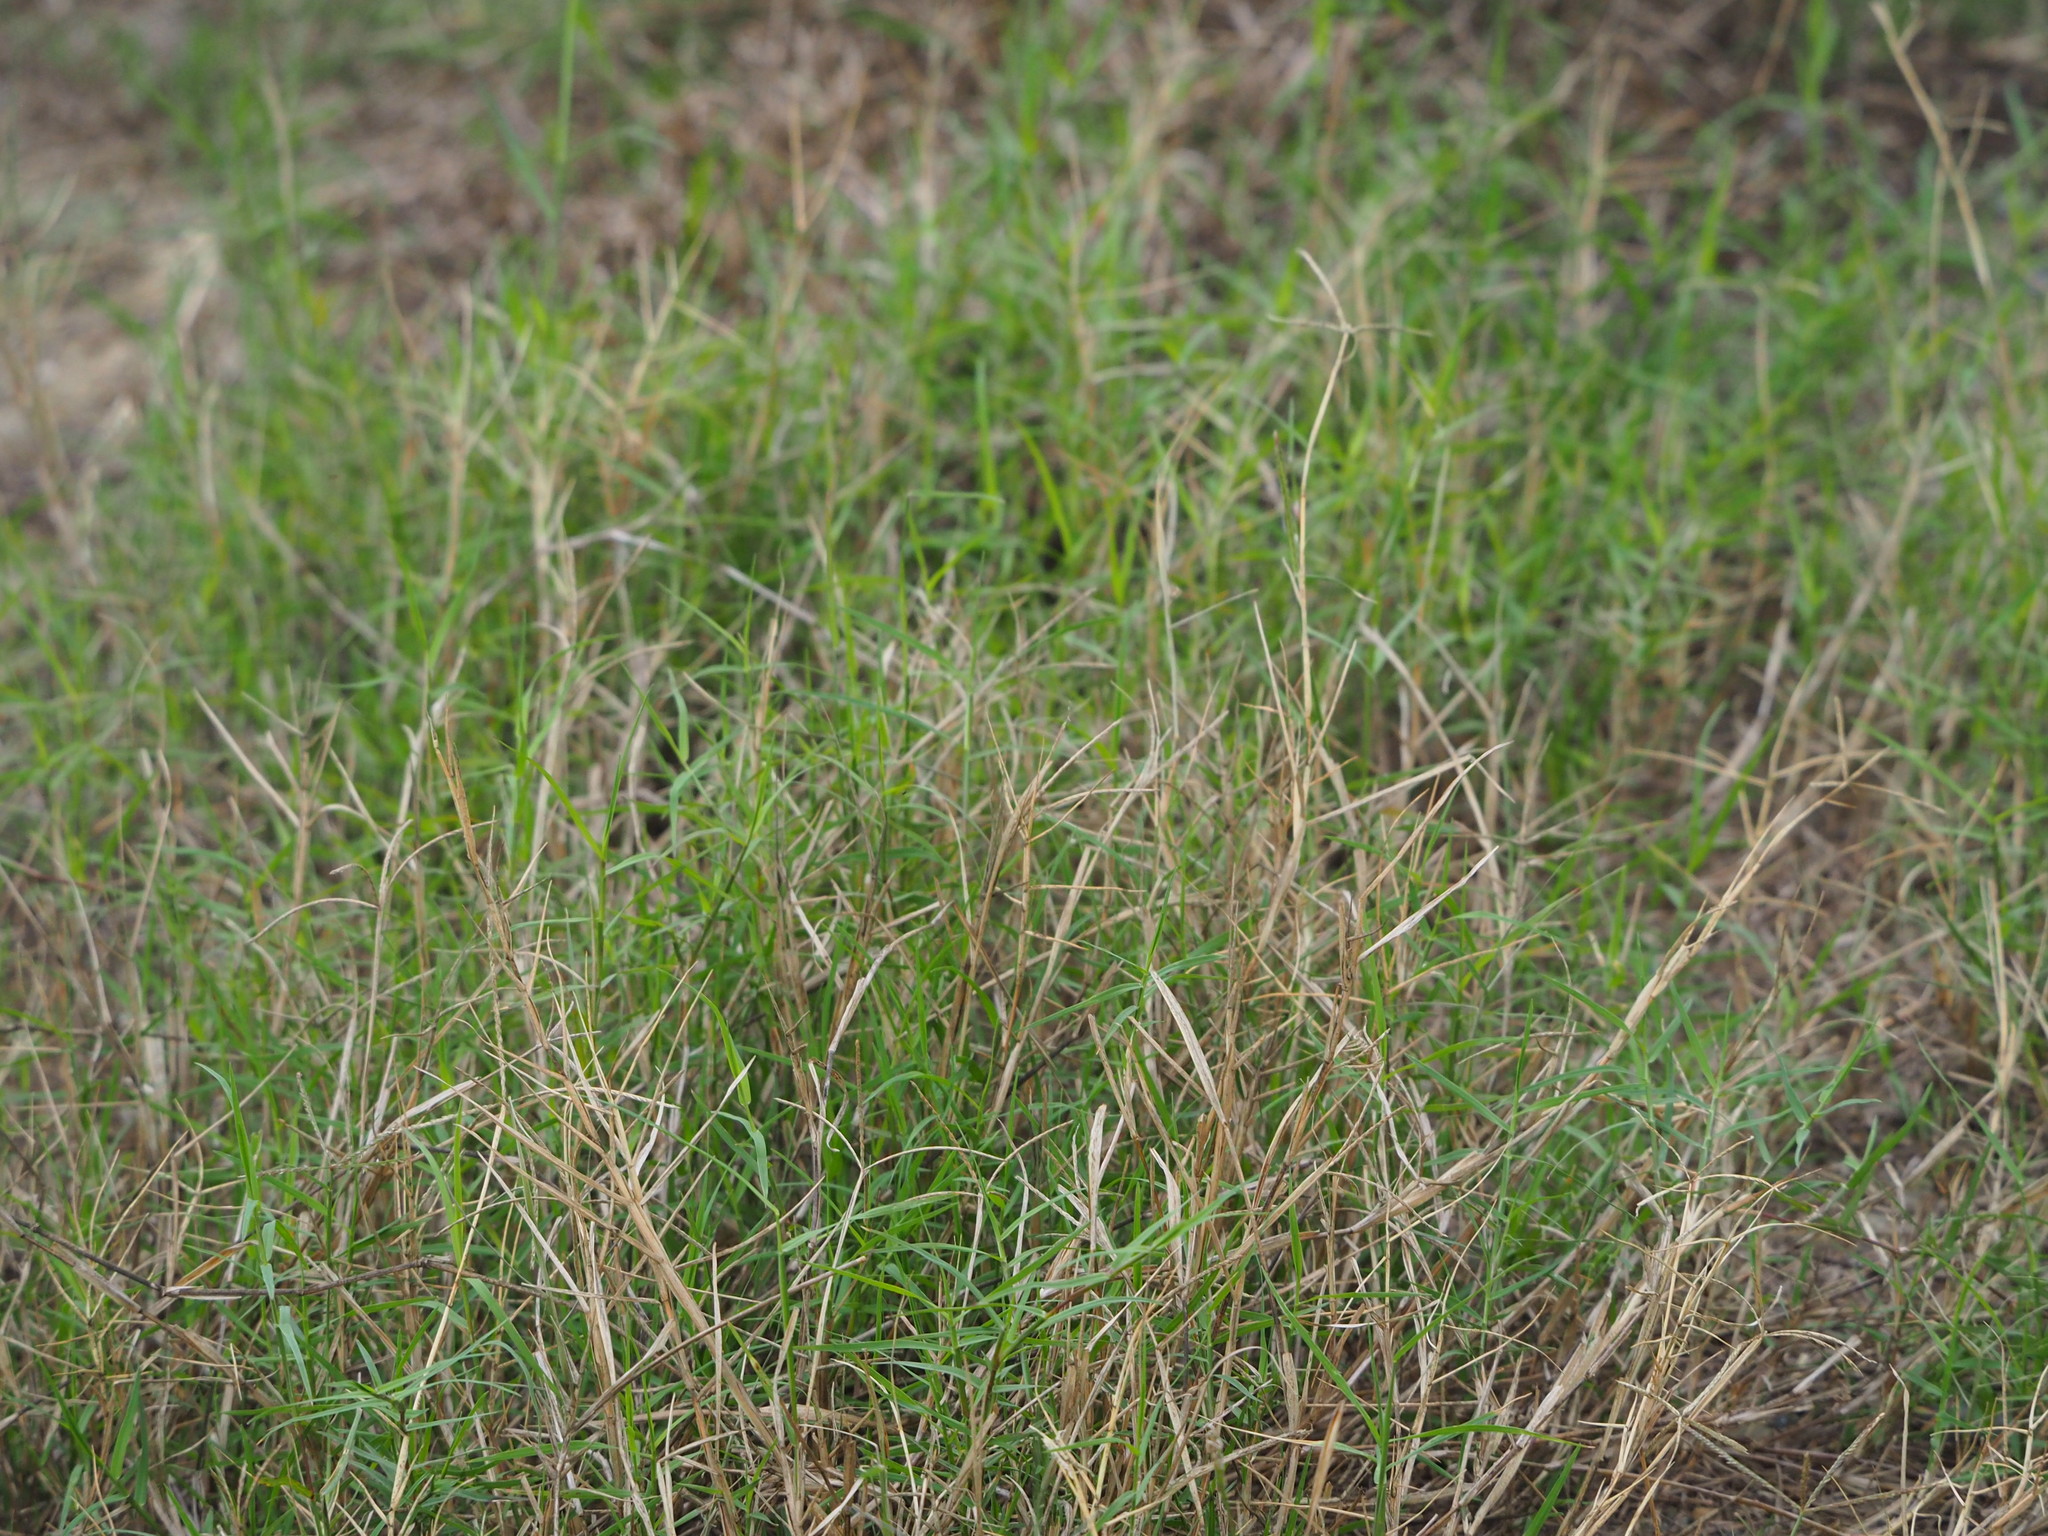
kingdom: Plantae
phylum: Tracheophyta
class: Liliopsida
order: Poales
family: Poaceae
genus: Cynodon
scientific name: Cynodon dactylon
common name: Bermuda grass
